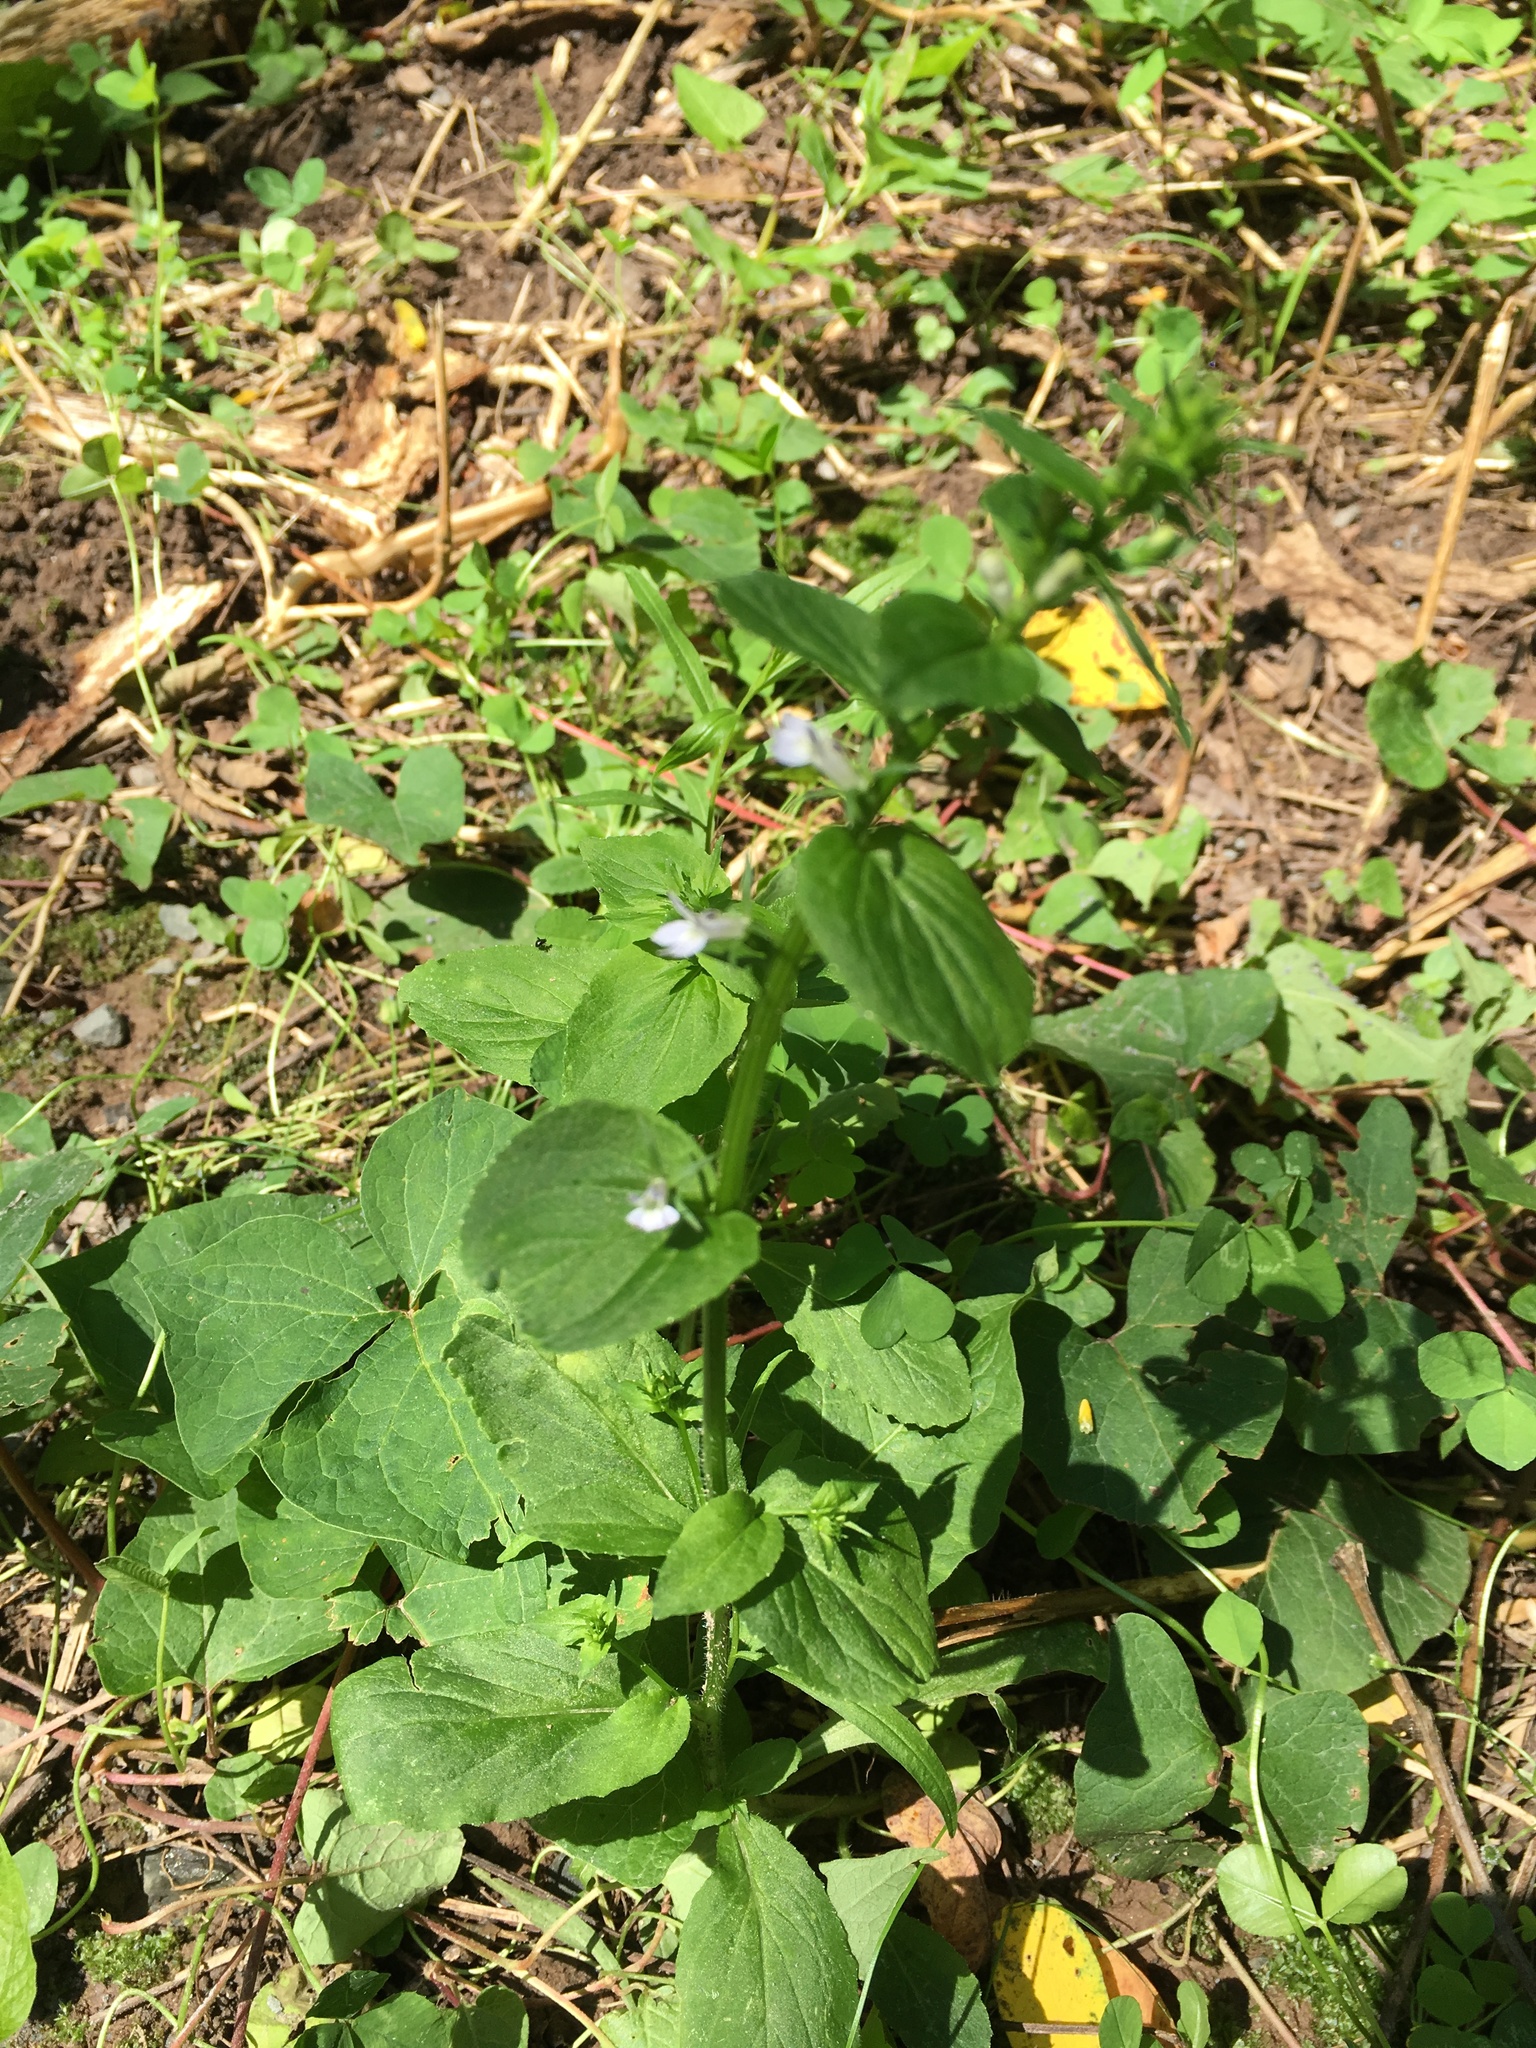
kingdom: Plantae
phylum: Tracheophyta
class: Magnoliopsida
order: Asterales
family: Campanulaceae
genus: Lobelia
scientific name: Lobelia inflata
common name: Indian tobacco
